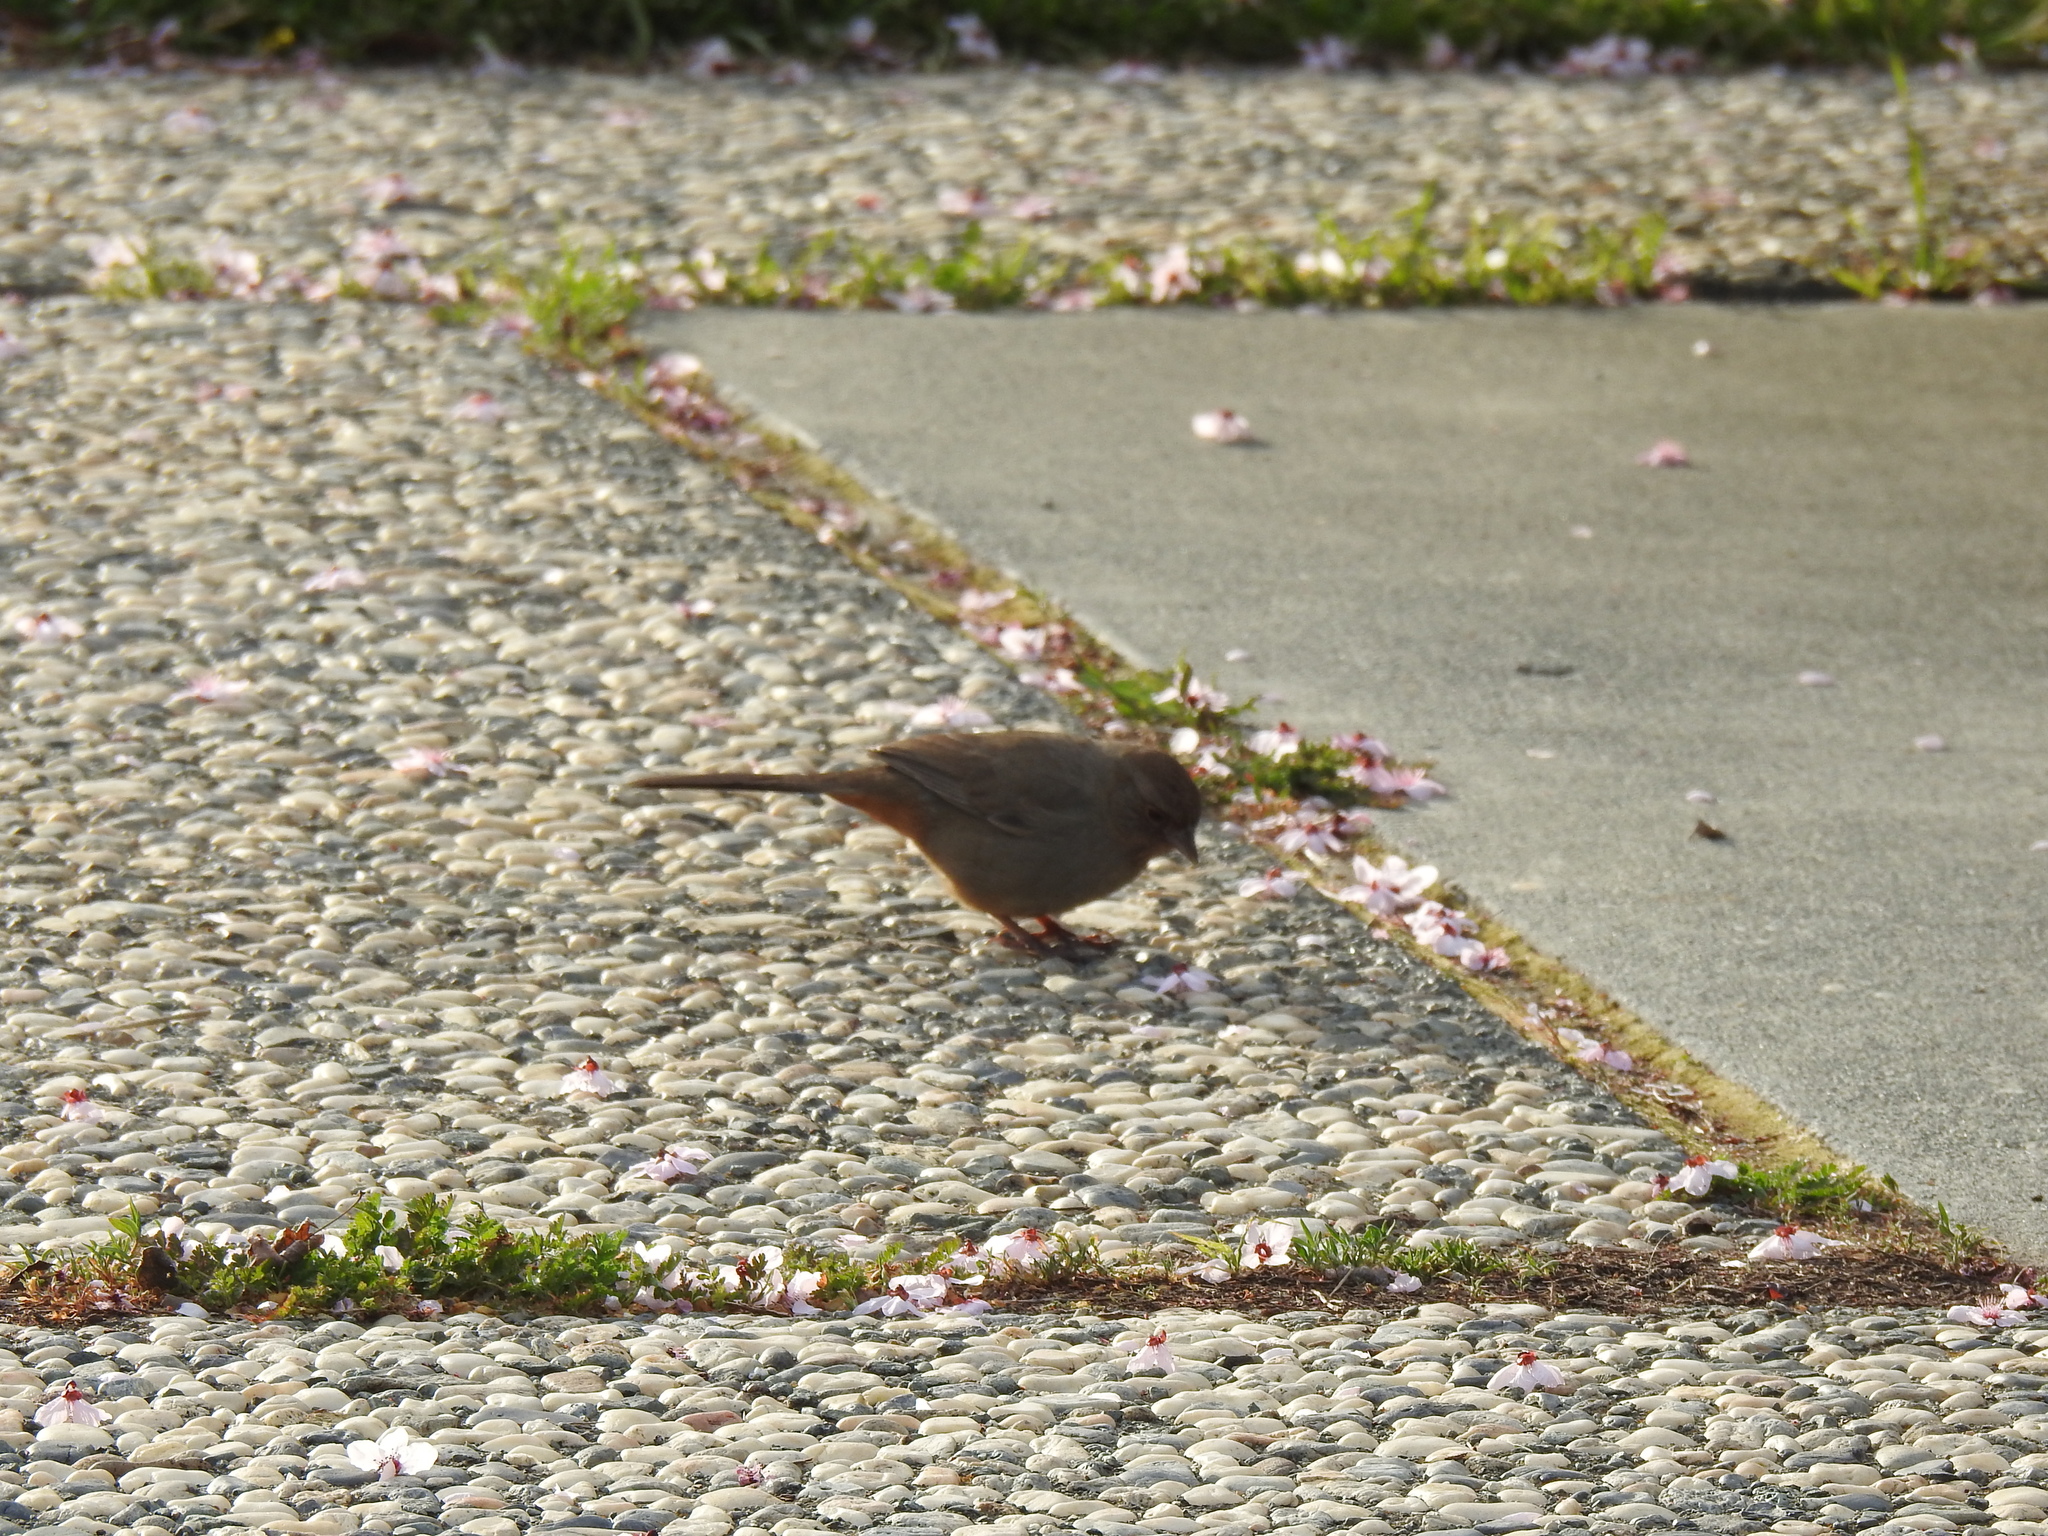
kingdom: Animalia
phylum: Chordata
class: Aves
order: Passeriformes
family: Passerellidae
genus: Melozone
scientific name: Melozone crissalis
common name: California towhee
